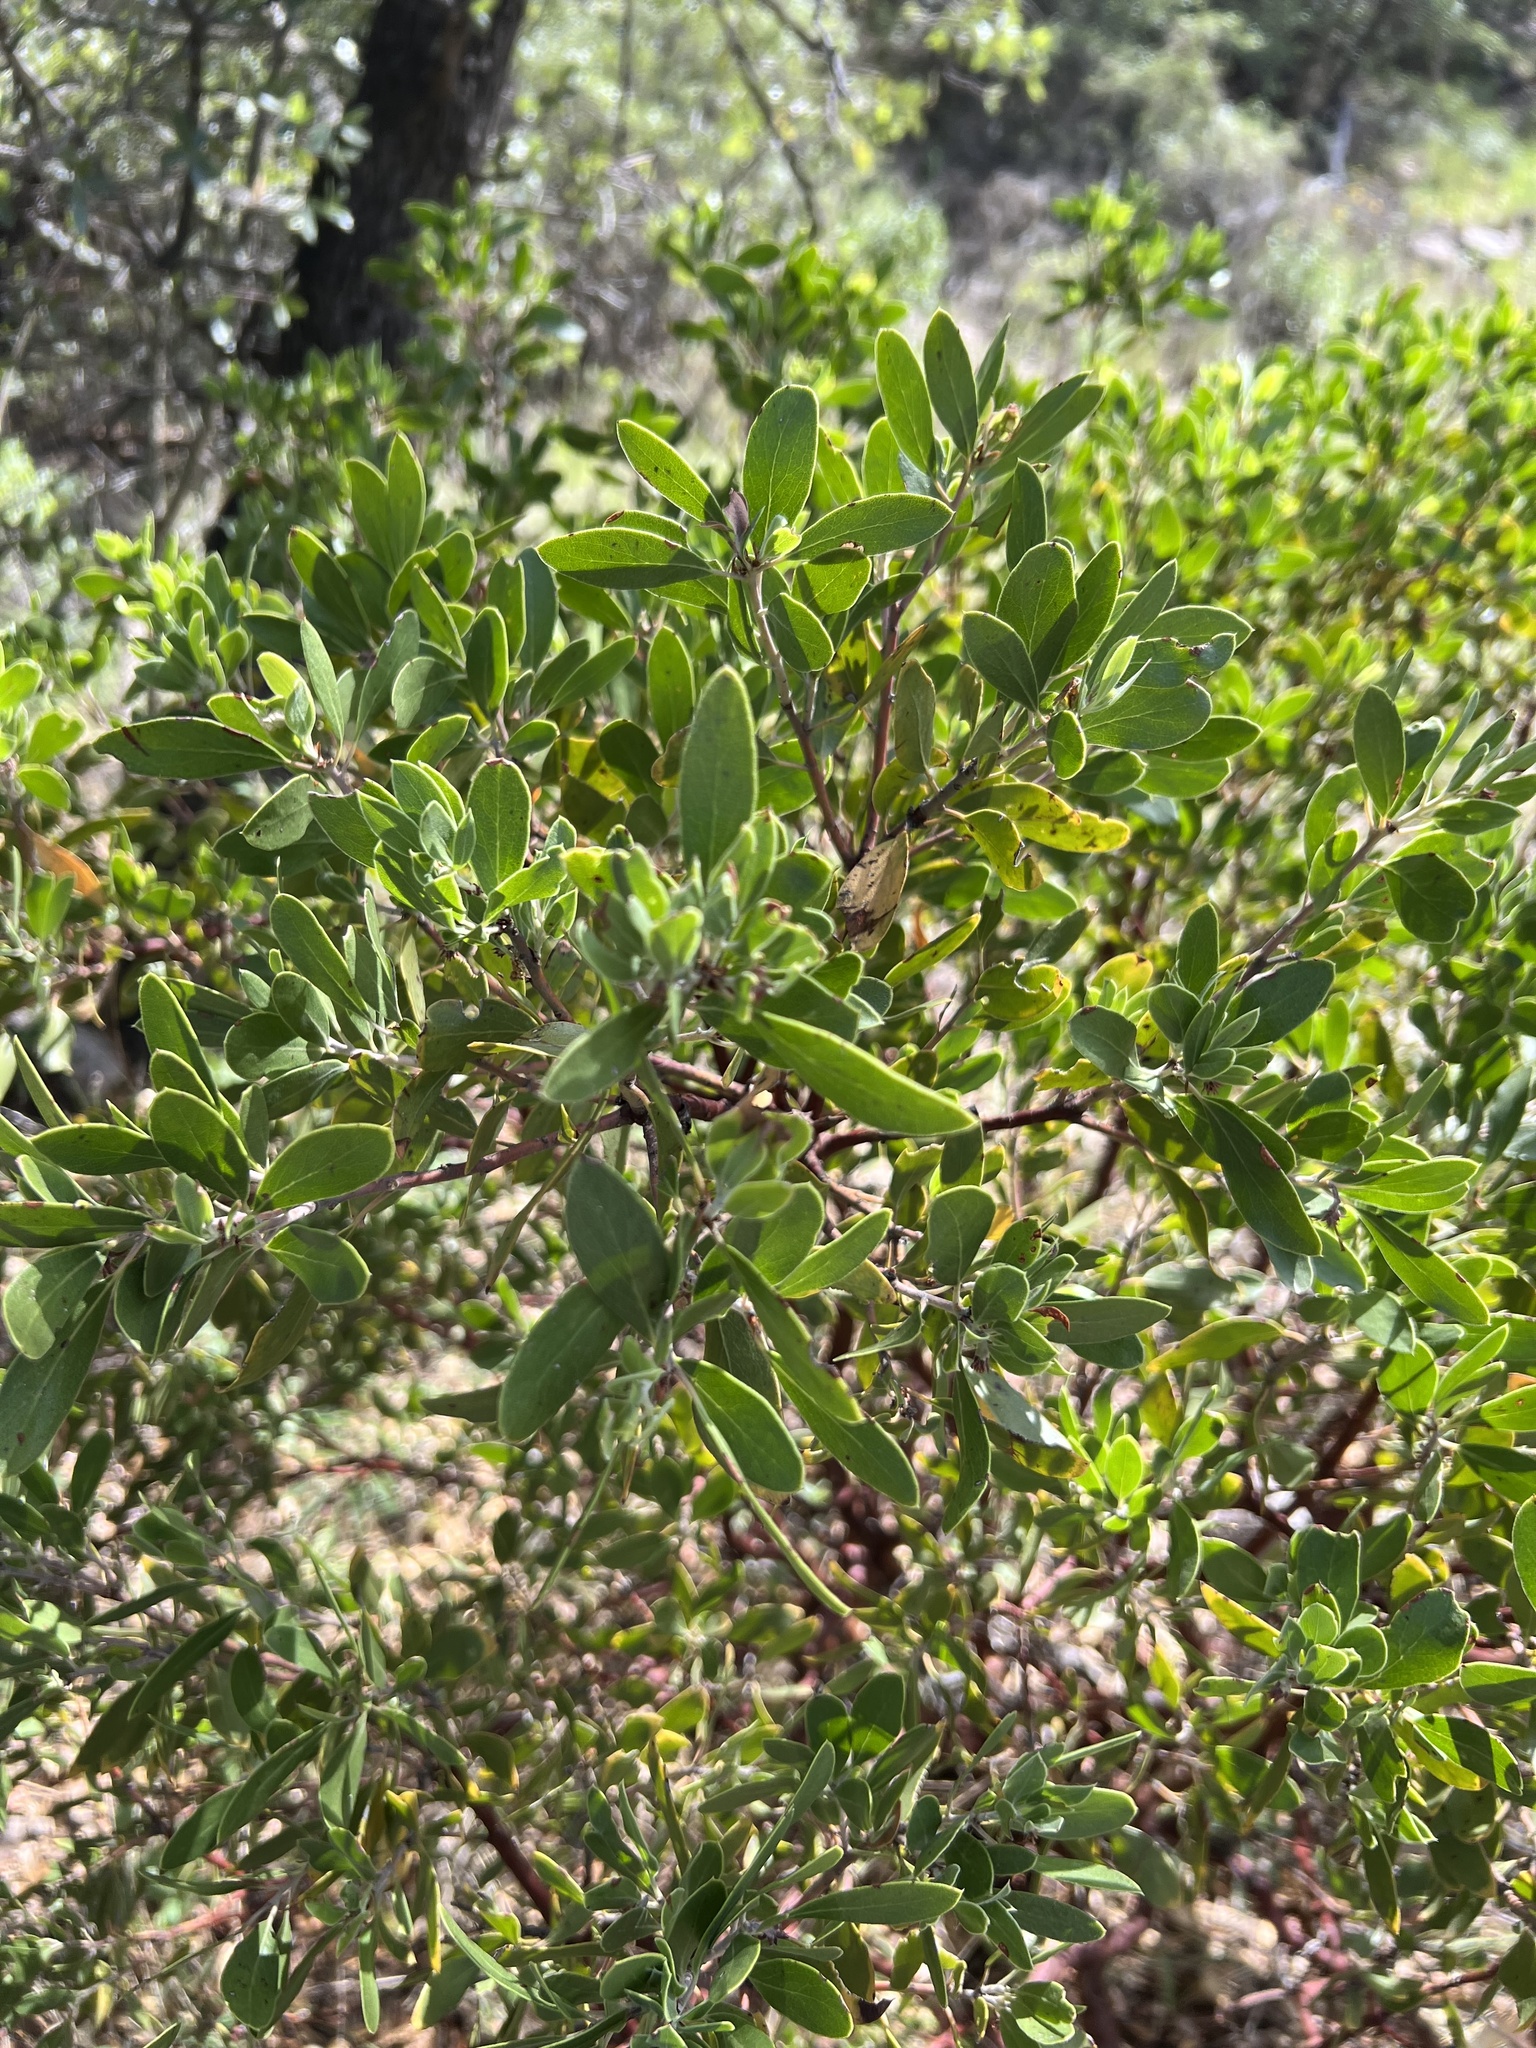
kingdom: Plantae
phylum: Tracheophyta
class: Magnoliopsida
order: Ericales
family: Ericaceae
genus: Arctostaphylos
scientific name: Arctostaphylos pungens
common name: Mexican manzanita
